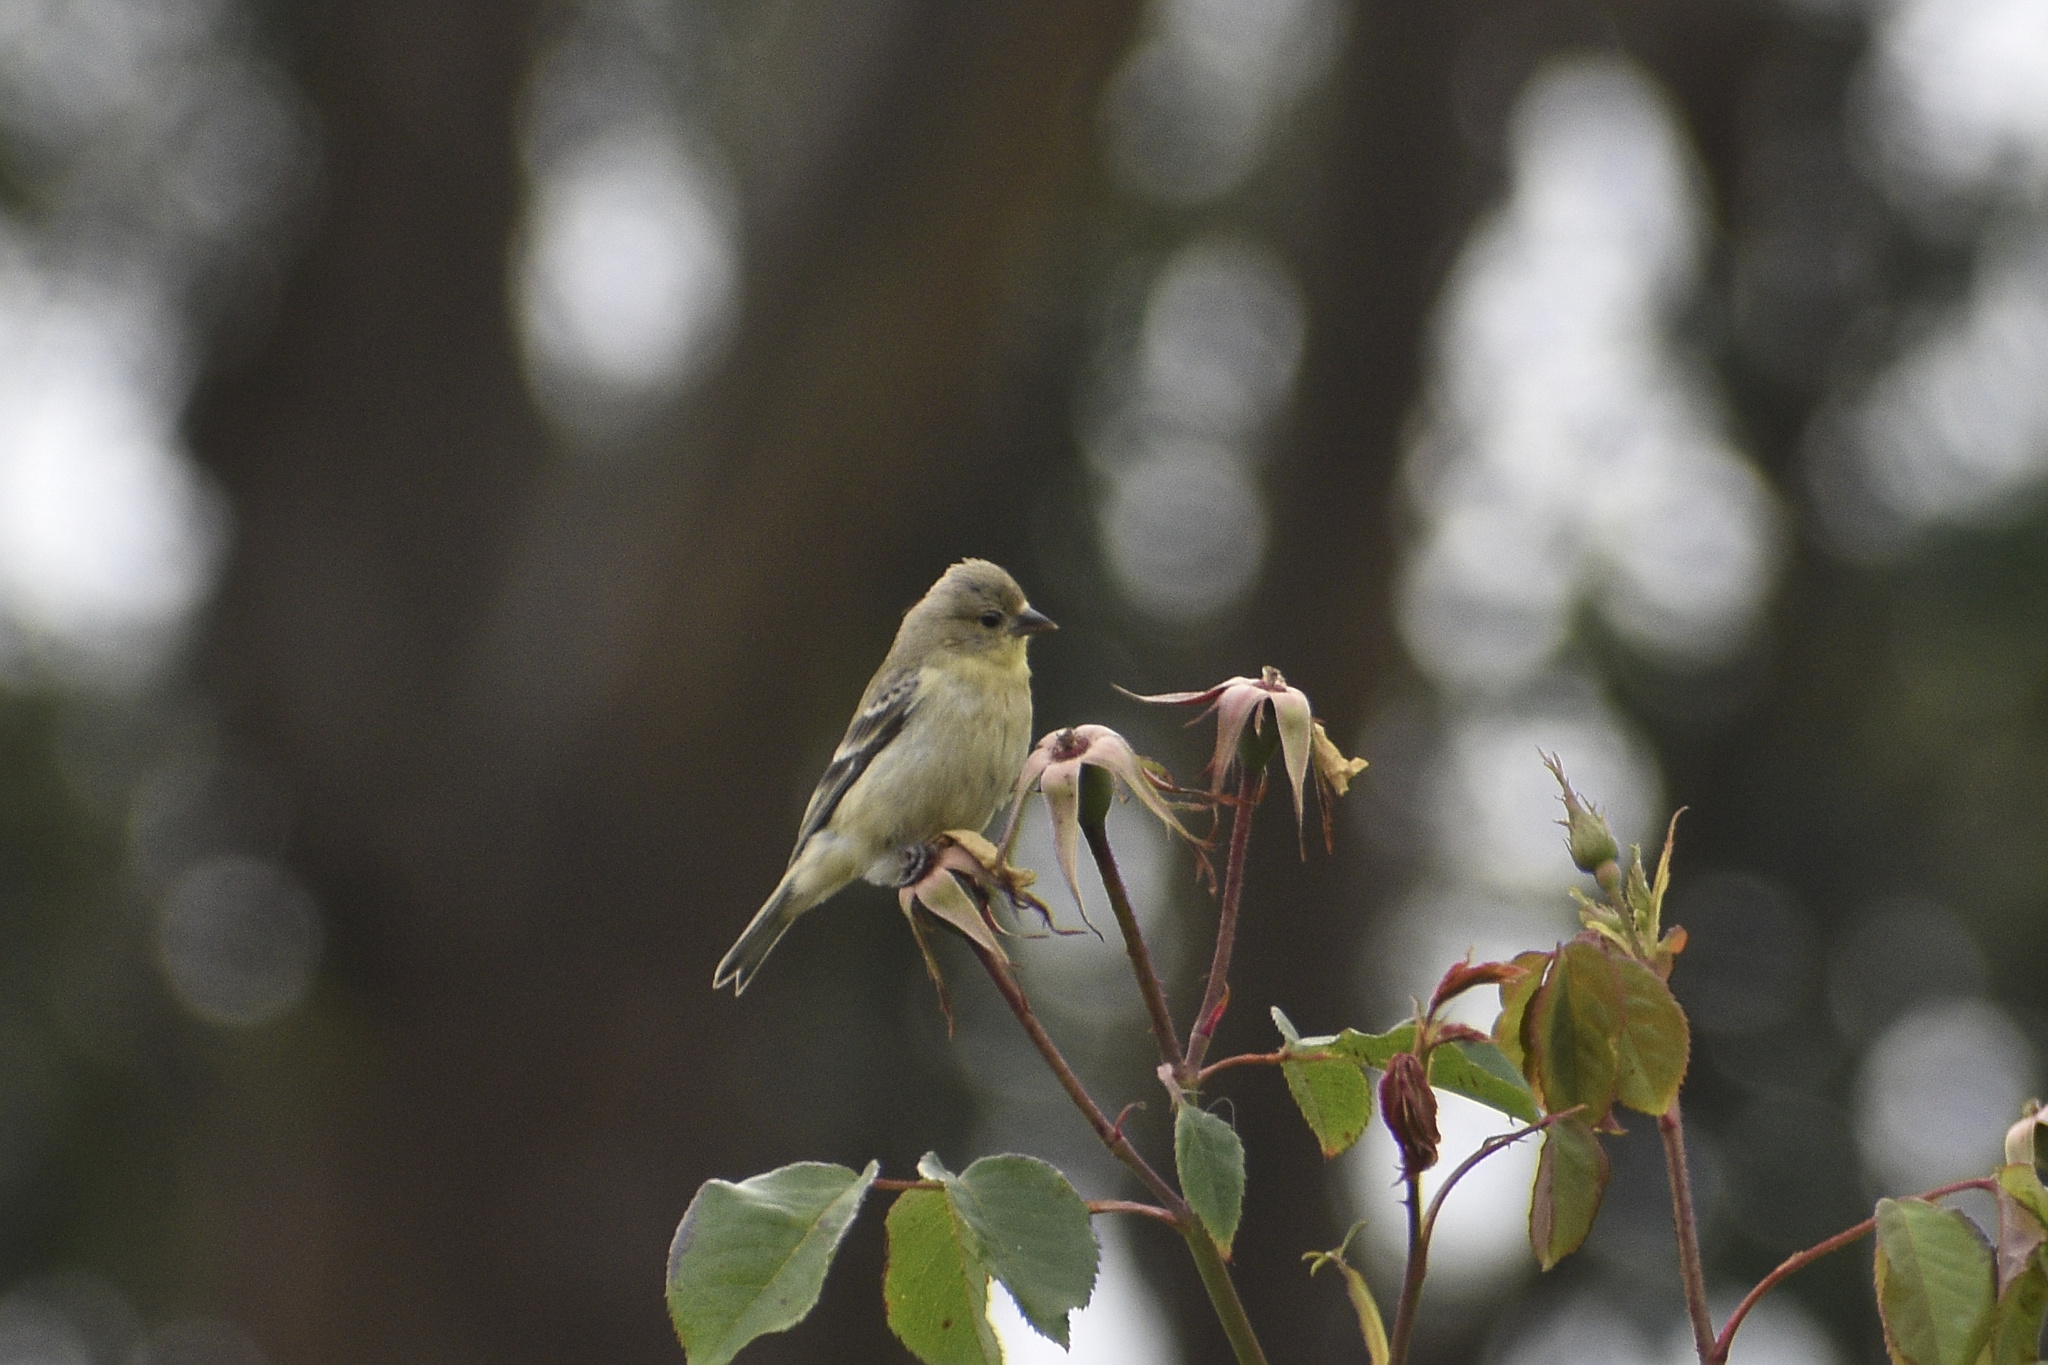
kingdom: Animalia
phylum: Chordata
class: Aves
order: Passeriformes
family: Fringillidae
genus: Spinus
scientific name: Spinus psaltria
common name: Lesser goldfinch
